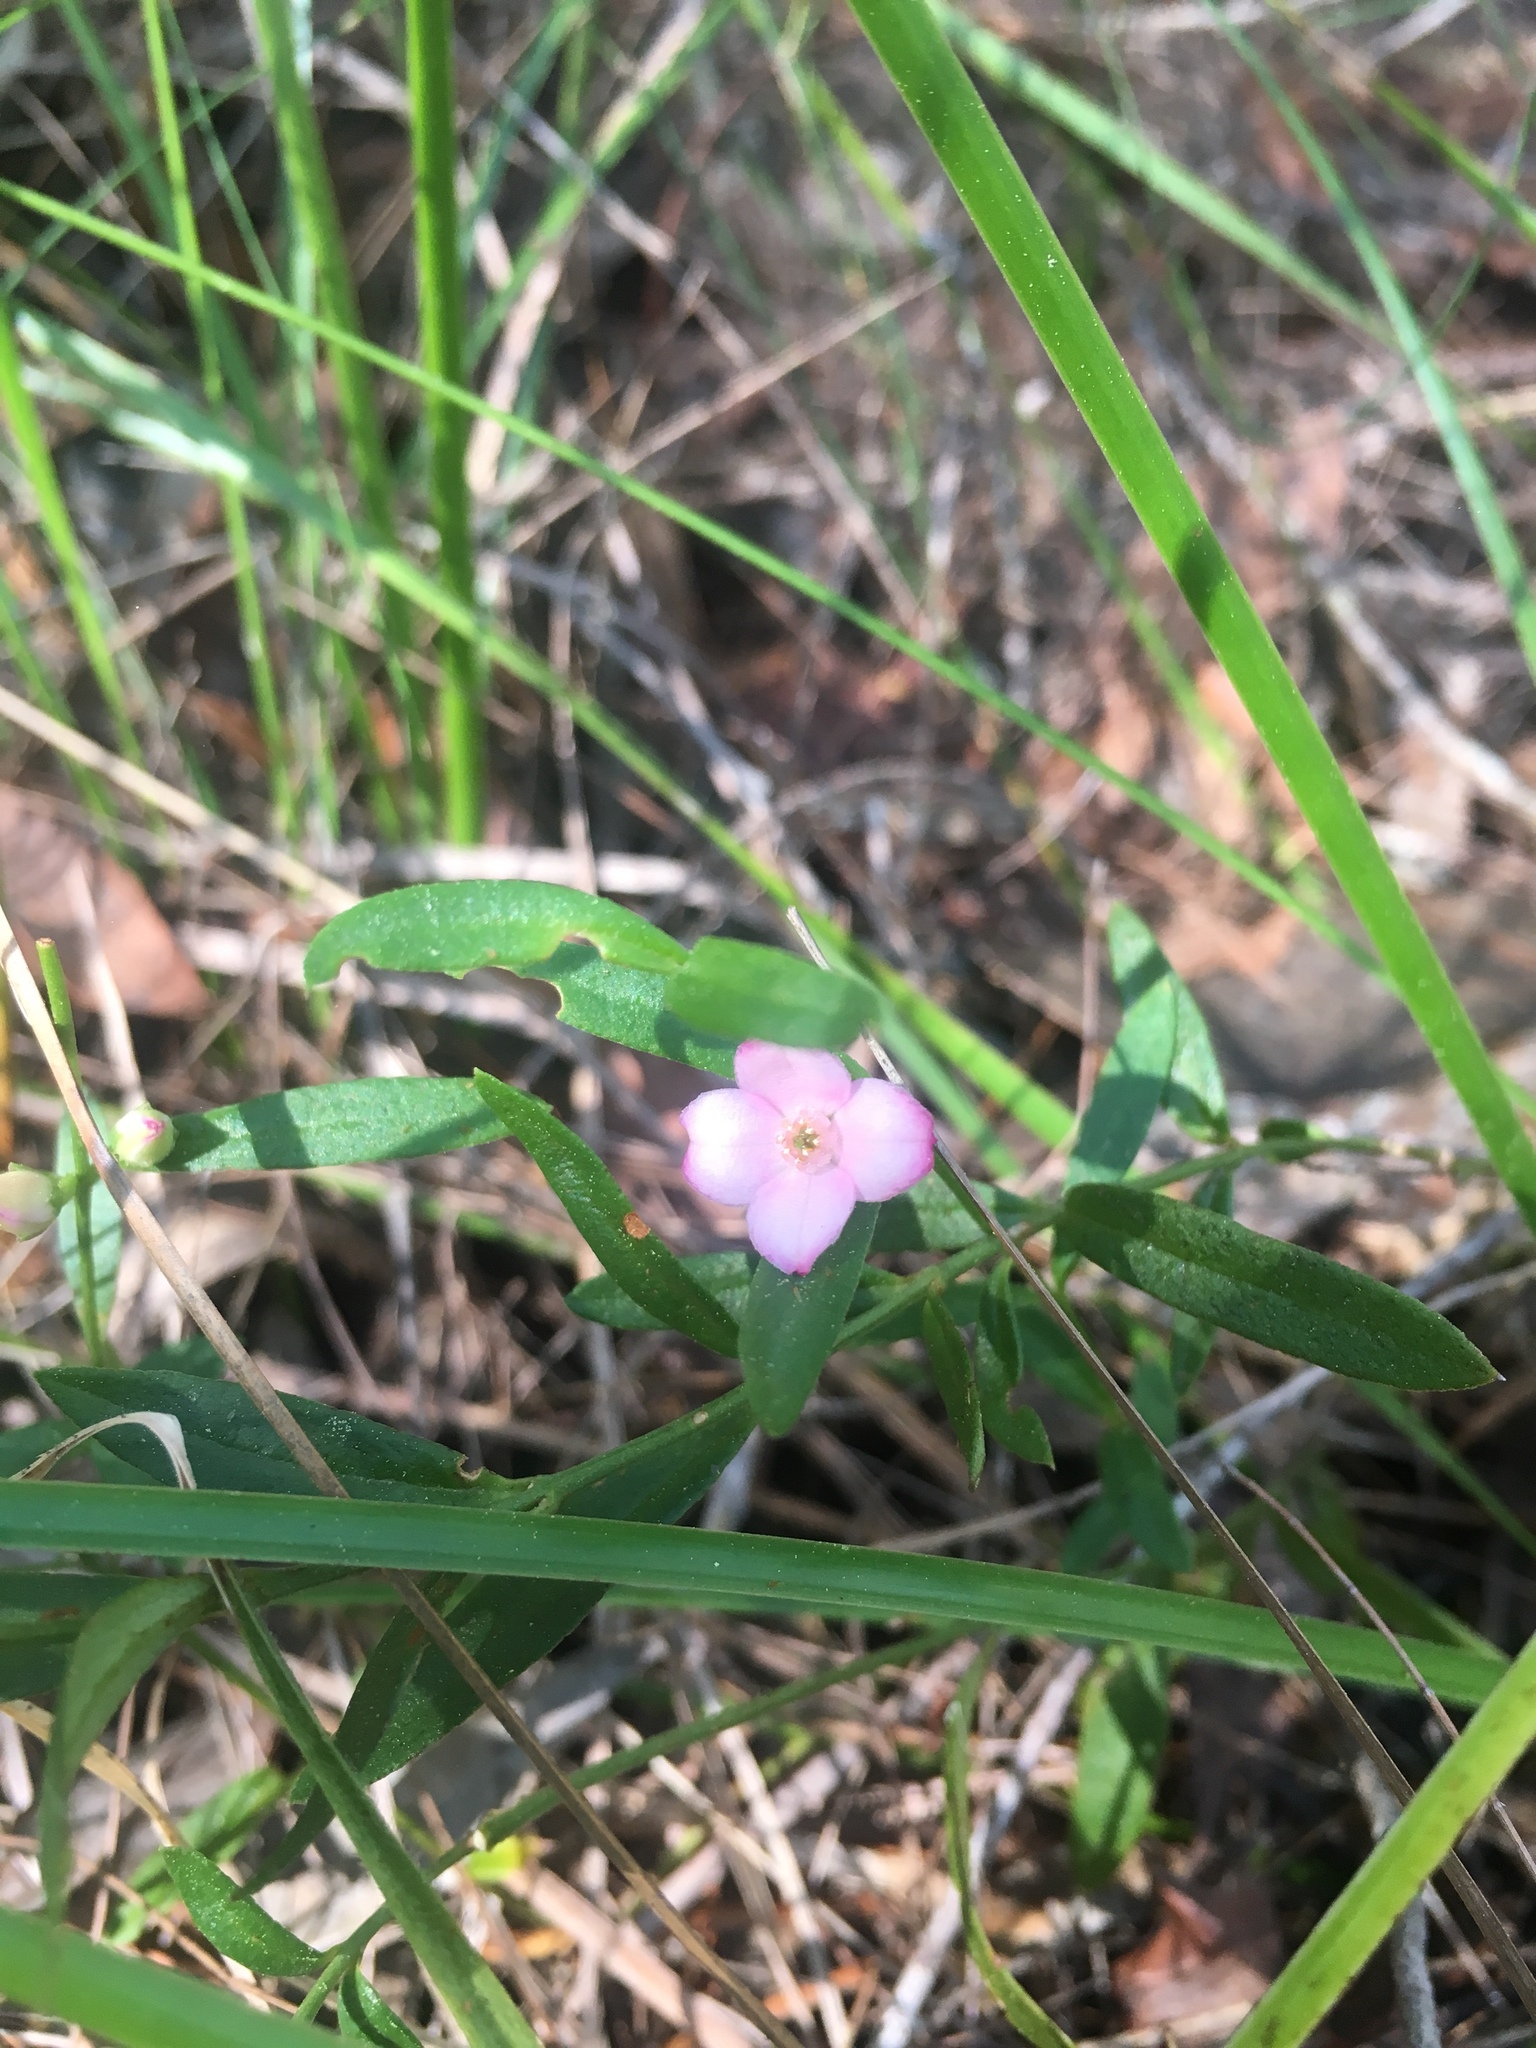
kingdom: Plantae
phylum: Tracheophyta
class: Magnoliopsida
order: Sapindales
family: Rutaceae
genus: Cyanothamnus
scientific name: Cyanothamnus polygalifolius
